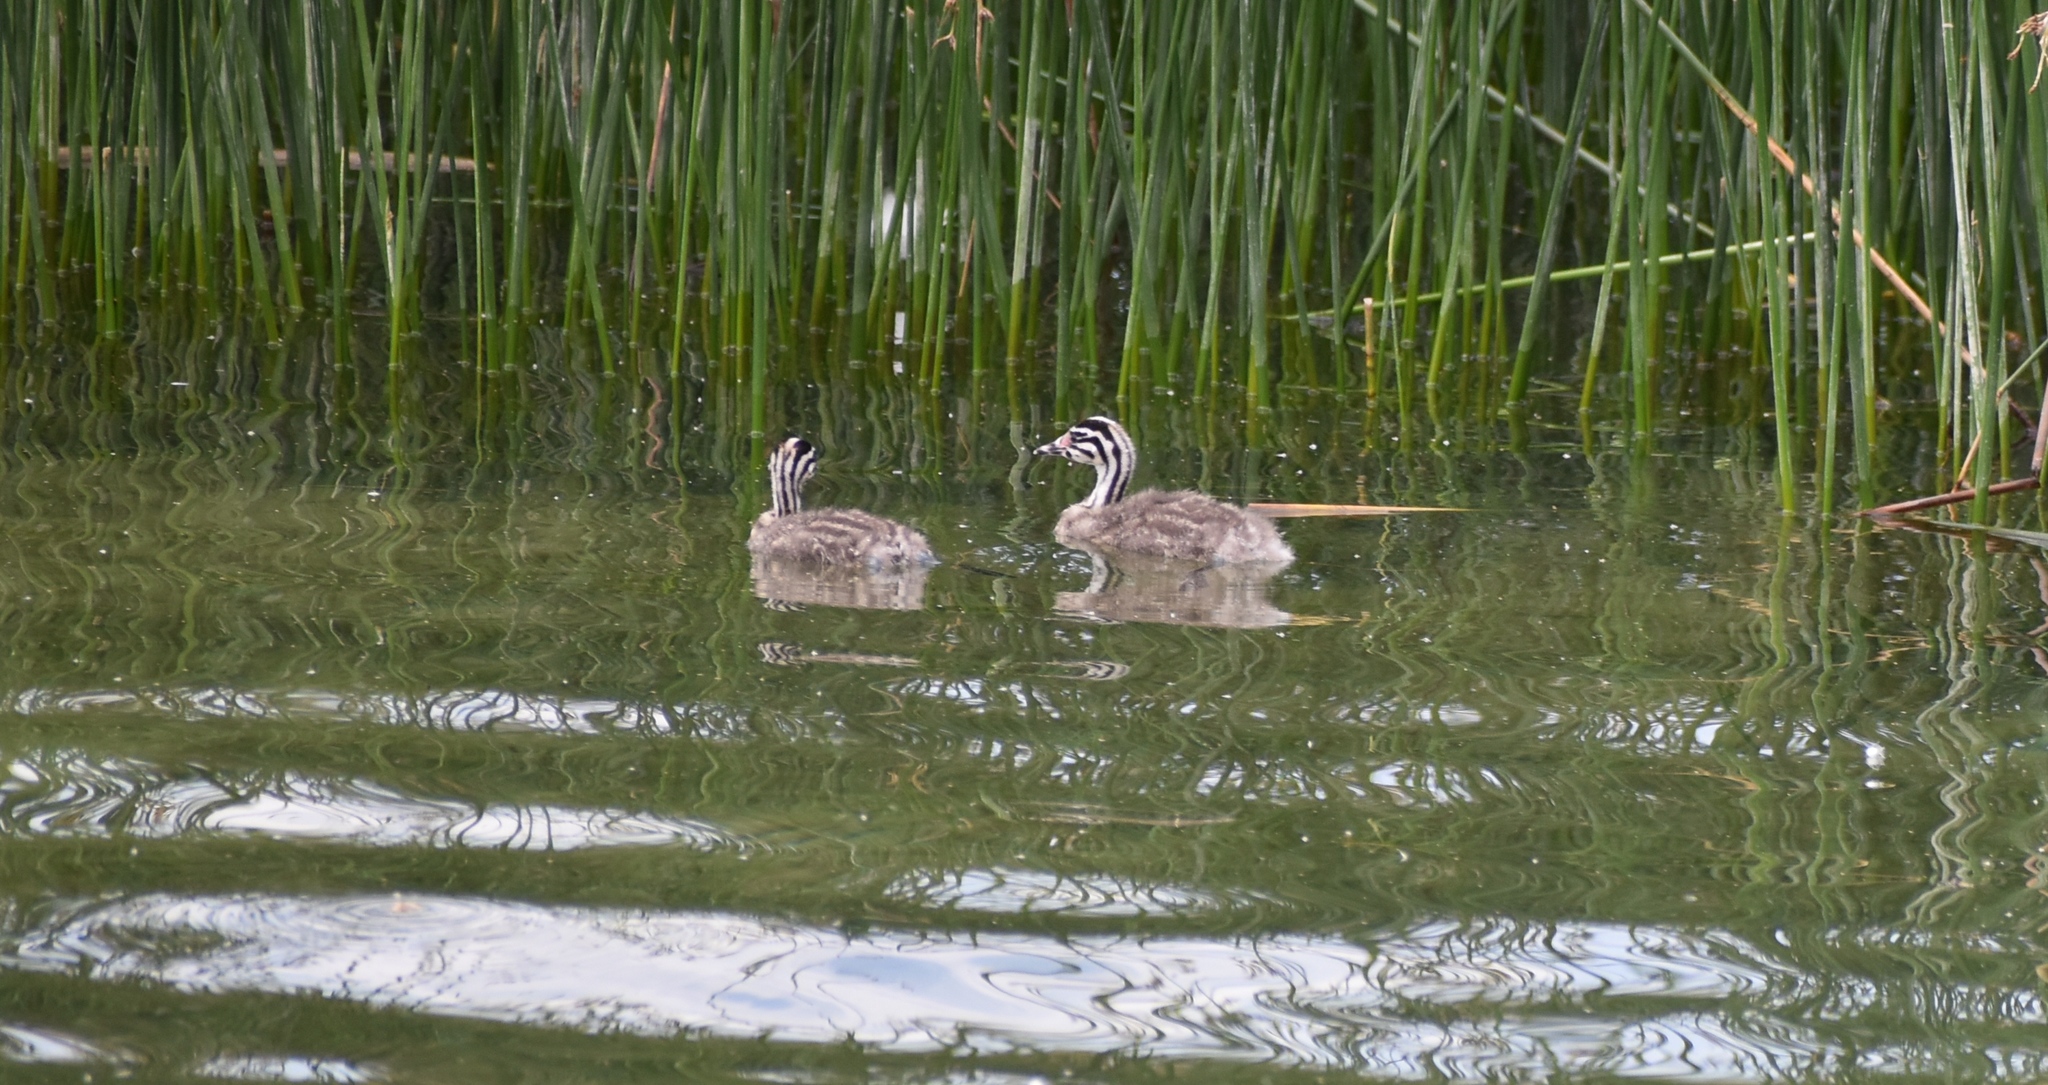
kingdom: Animalia
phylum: Chordata
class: Aves
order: Podicipediformes
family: Podicipedidae
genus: Podiceps
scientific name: Podiceps cristatus
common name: Great crested grebe
